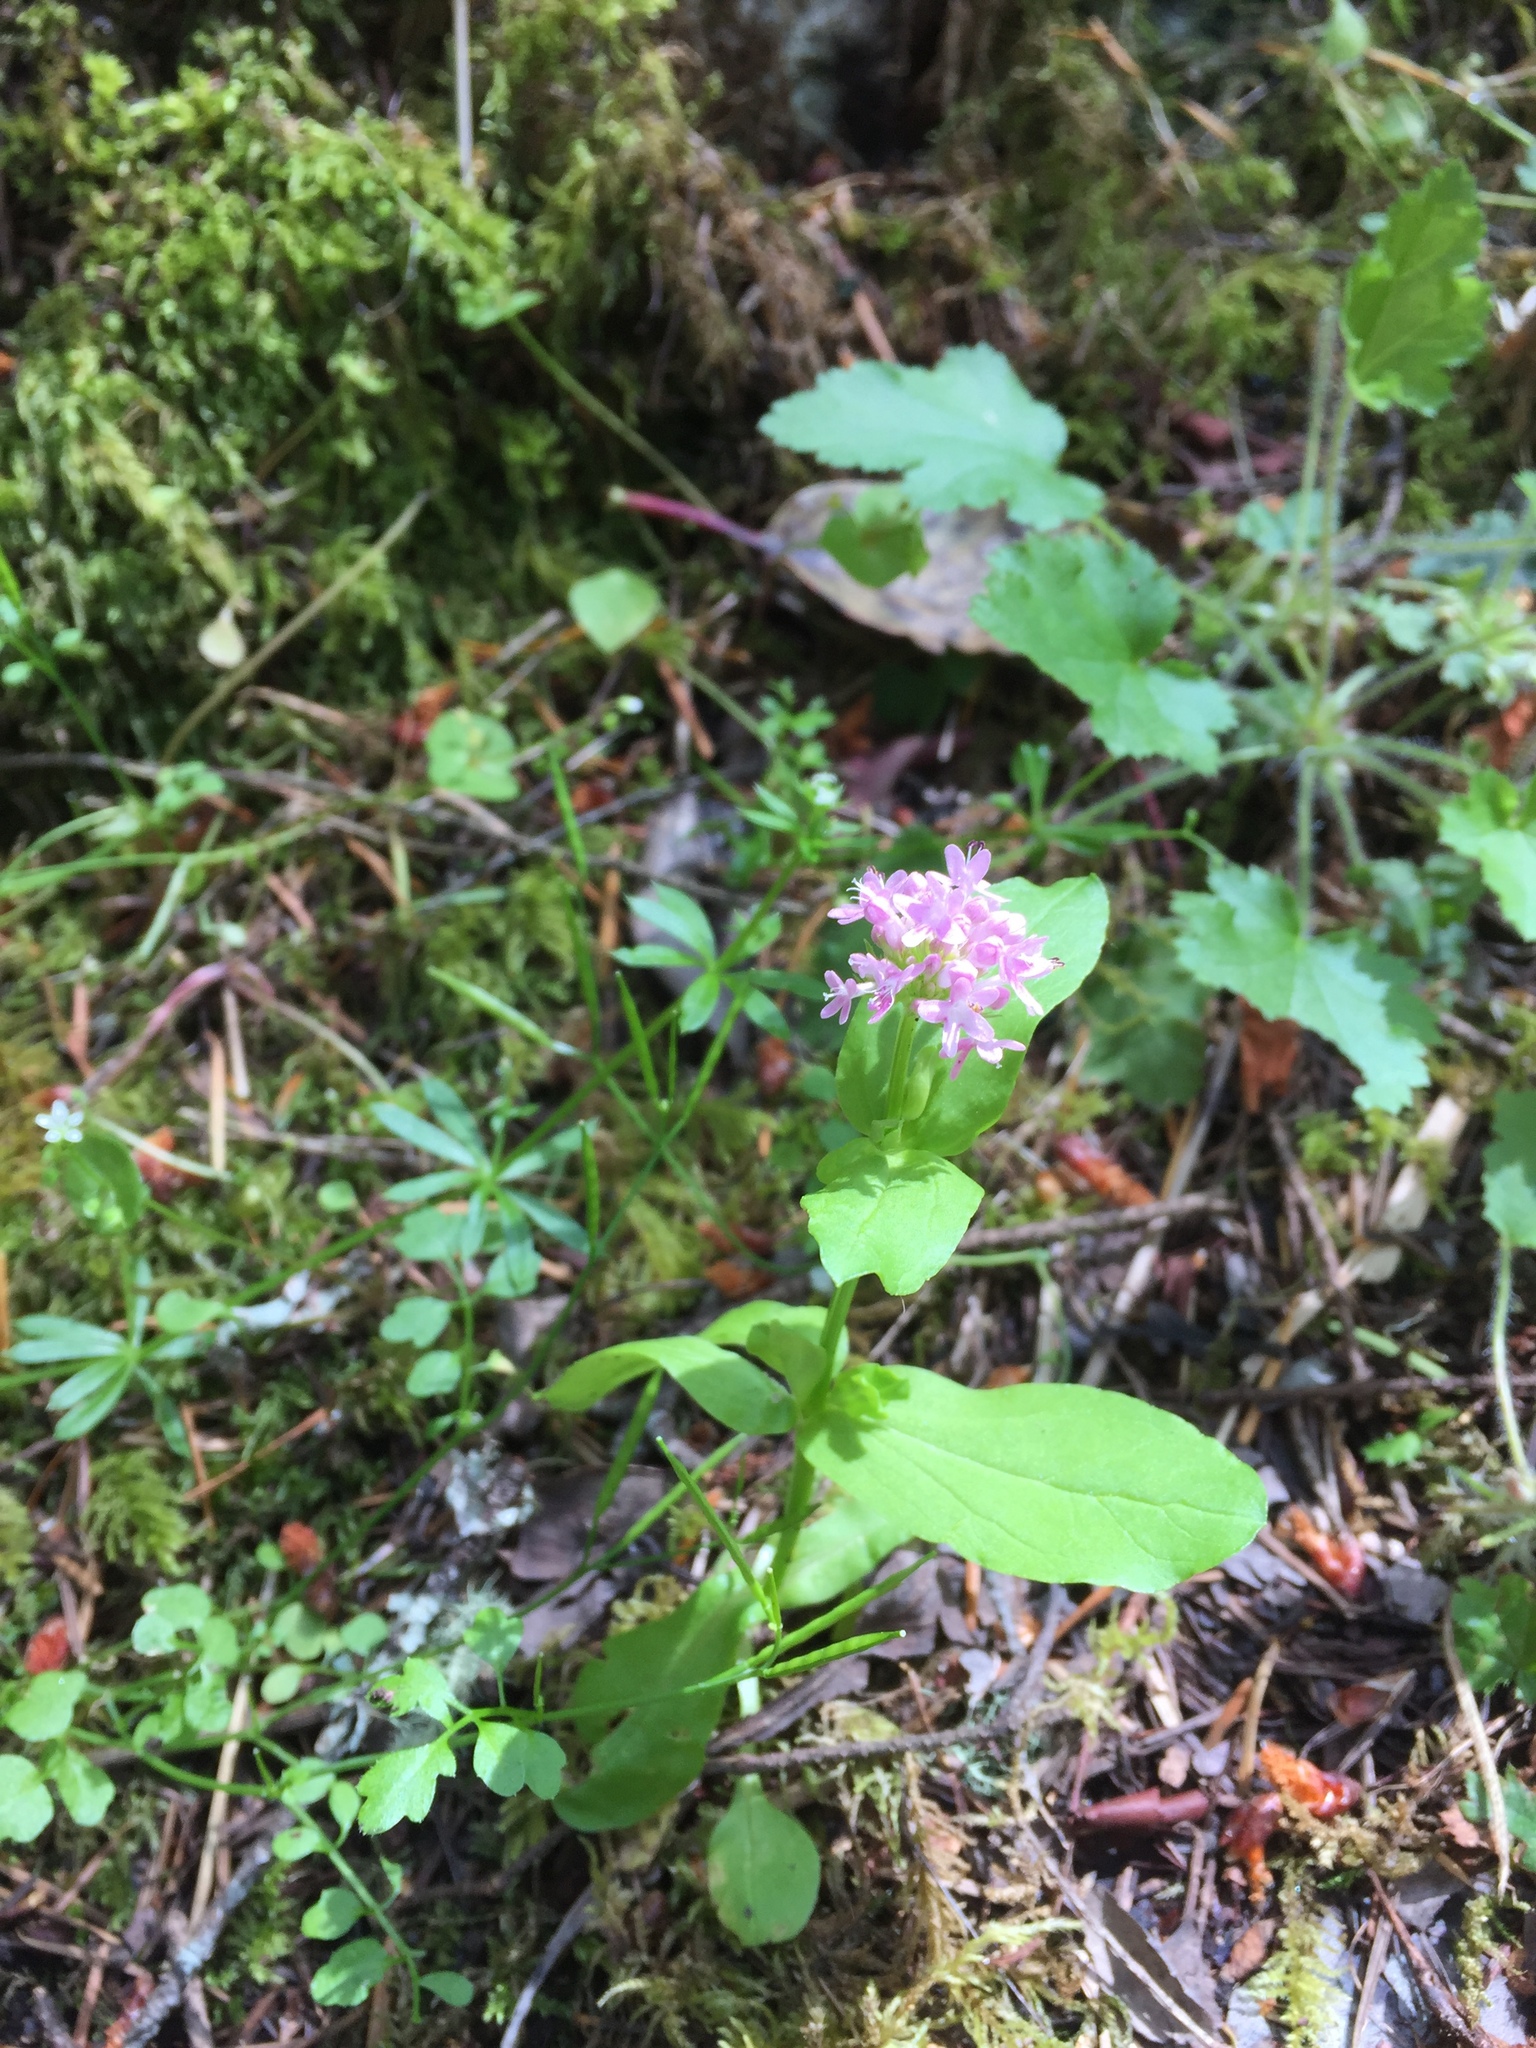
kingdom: Plantae
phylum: Tracheophyta
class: Magnoliopsida
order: Dipsacales
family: Caprifoliaceae
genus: Plectritis
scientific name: Plectritis congesta
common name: Pink plectritis
